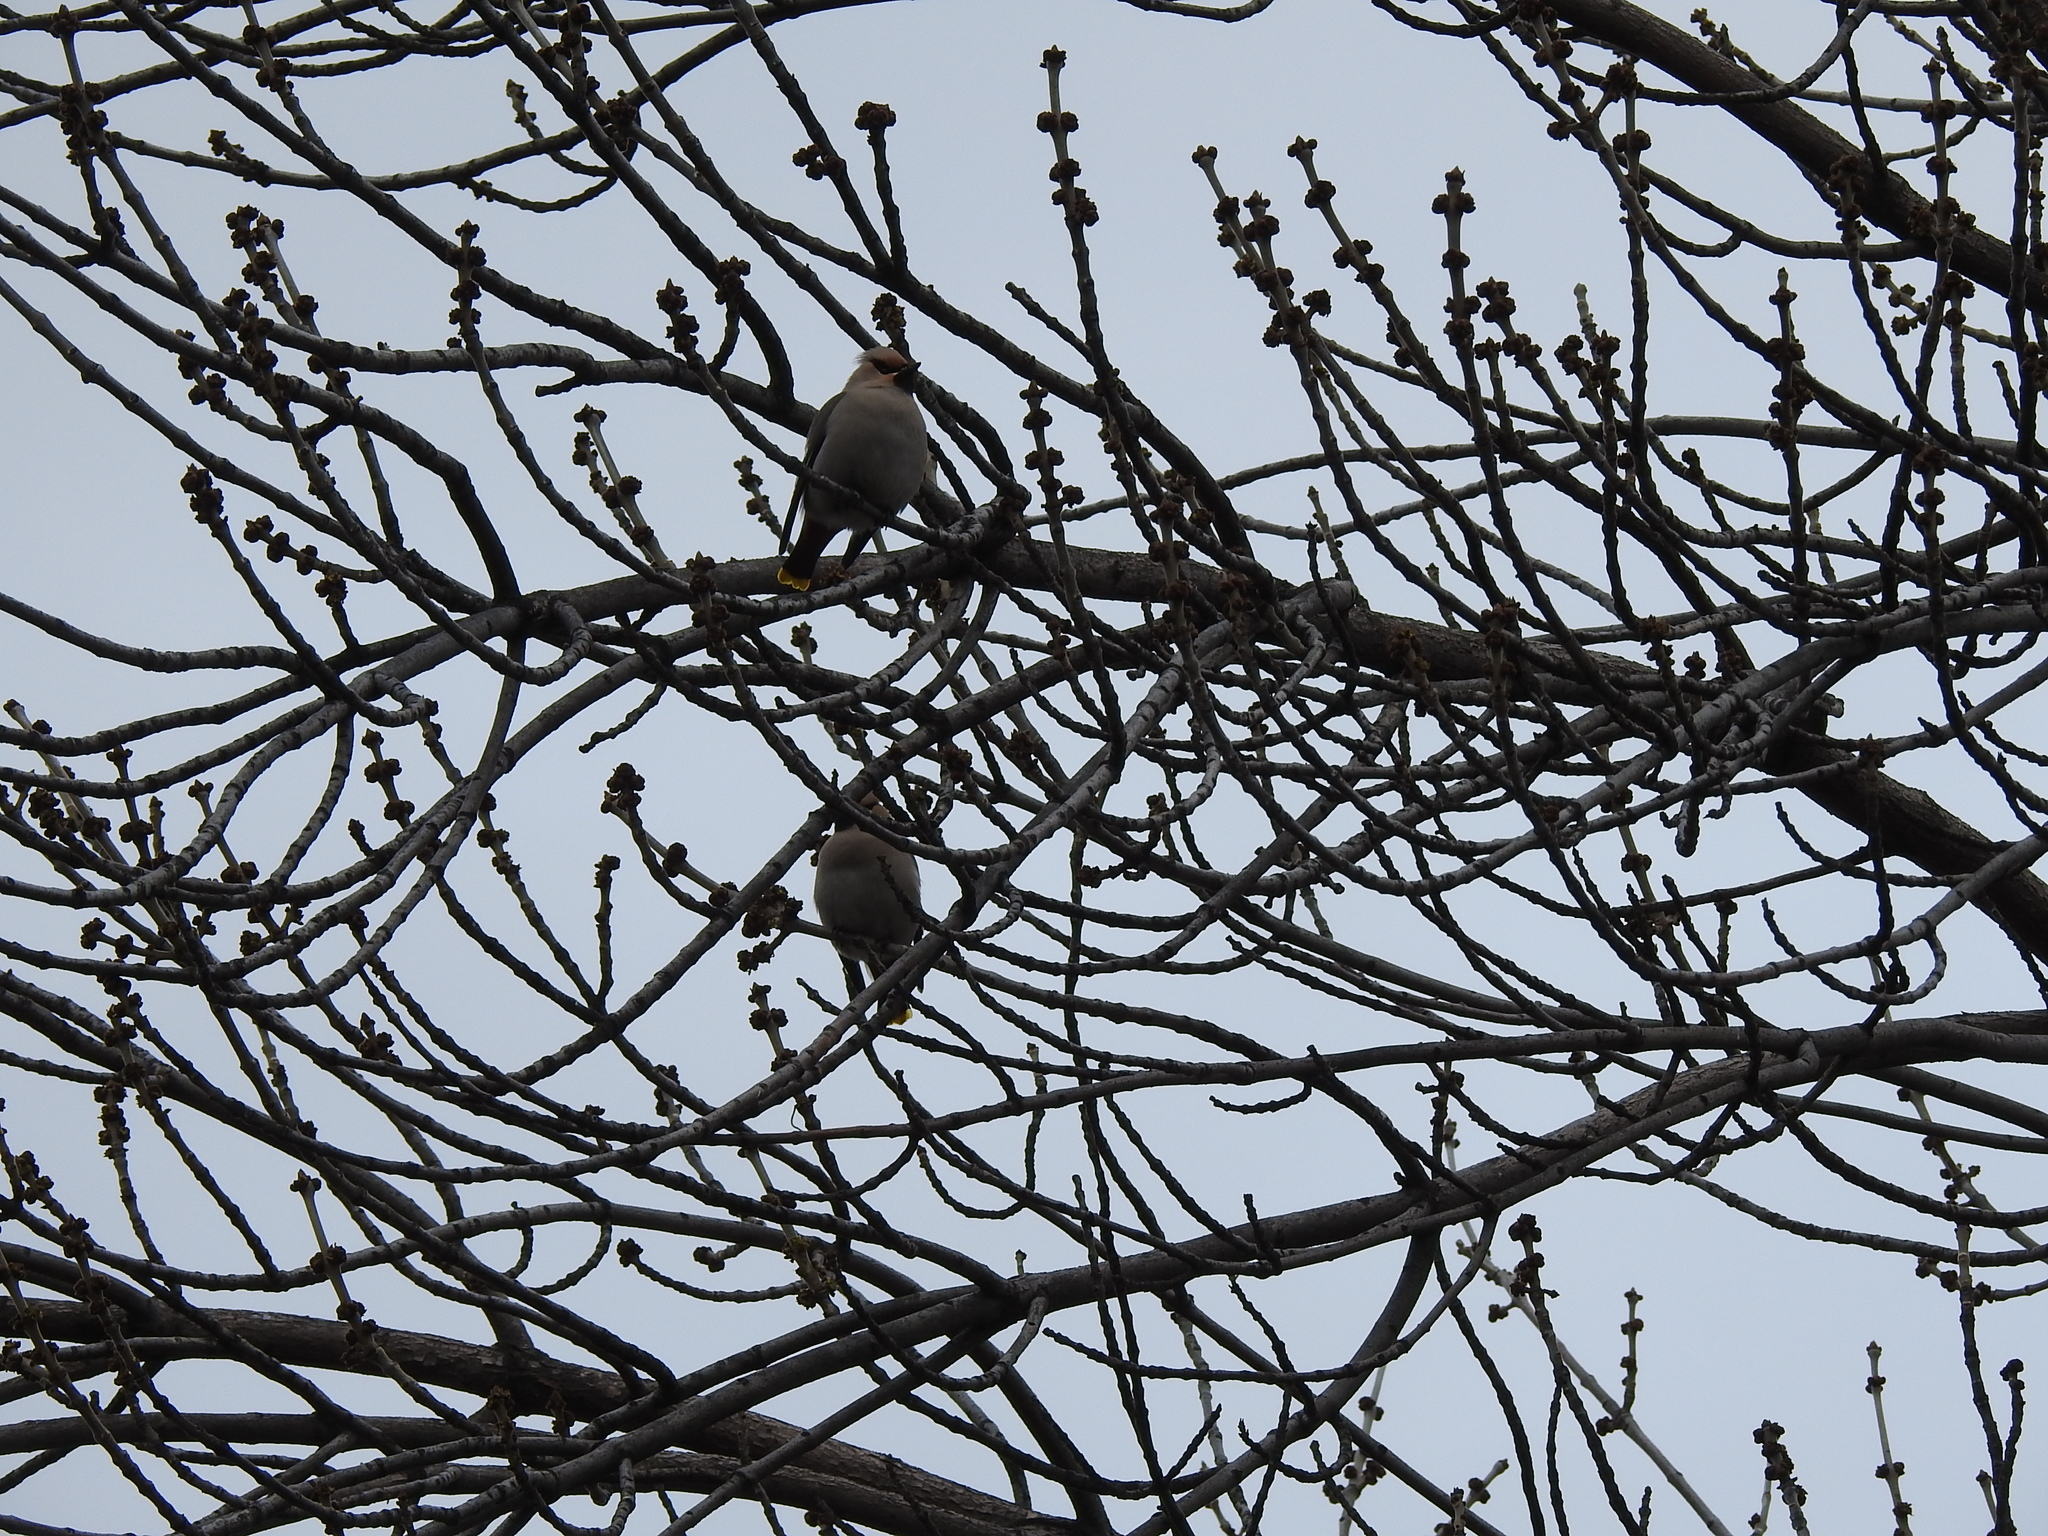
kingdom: Animalia
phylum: Chordata
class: Aves
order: Passeriformes
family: Bombycillidae
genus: Bombycilla
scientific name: Bombycilla garrulus
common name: Bohemian waxwing
